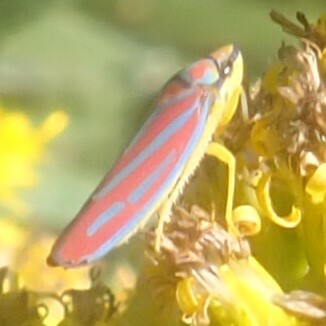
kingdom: Animalia
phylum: Arthropoda
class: Insecta
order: Hemiptera
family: Cicadellidae
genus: Graphocephala
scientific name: Graphocephala coccinea
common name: Candy-striped leafhopper
